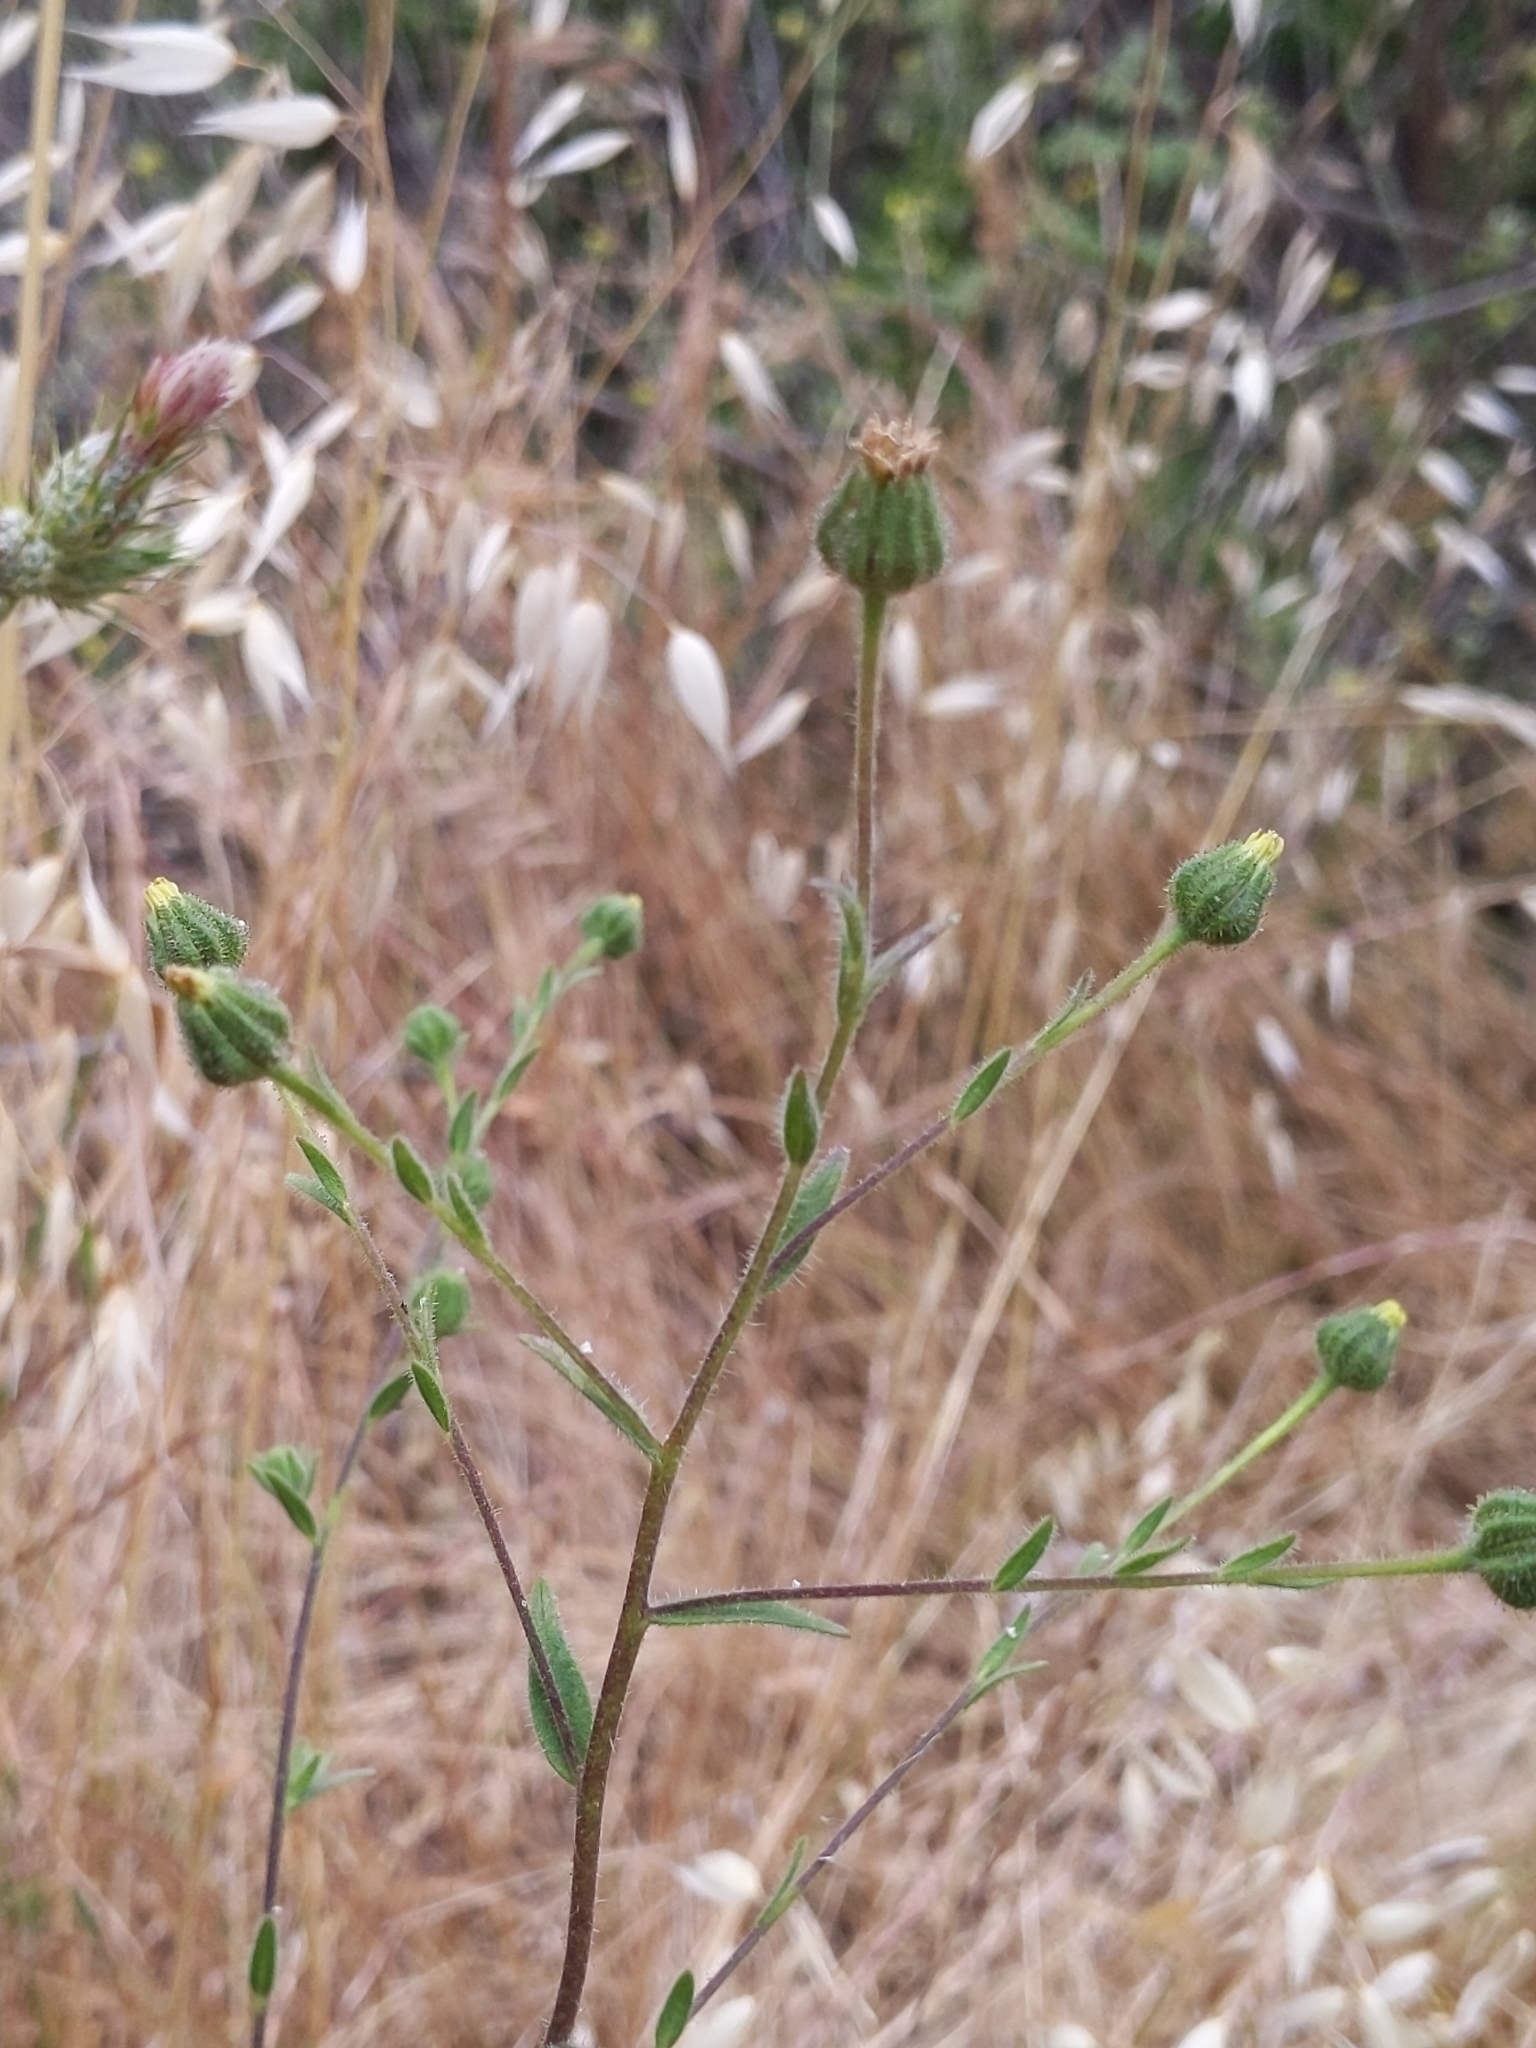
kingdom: Plantae
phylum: Tracheophyta
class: Magnoliopsida
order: Asterales
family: Asteraceae
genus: Madia
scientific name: Madia gracilis
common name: Grassy tarweed
